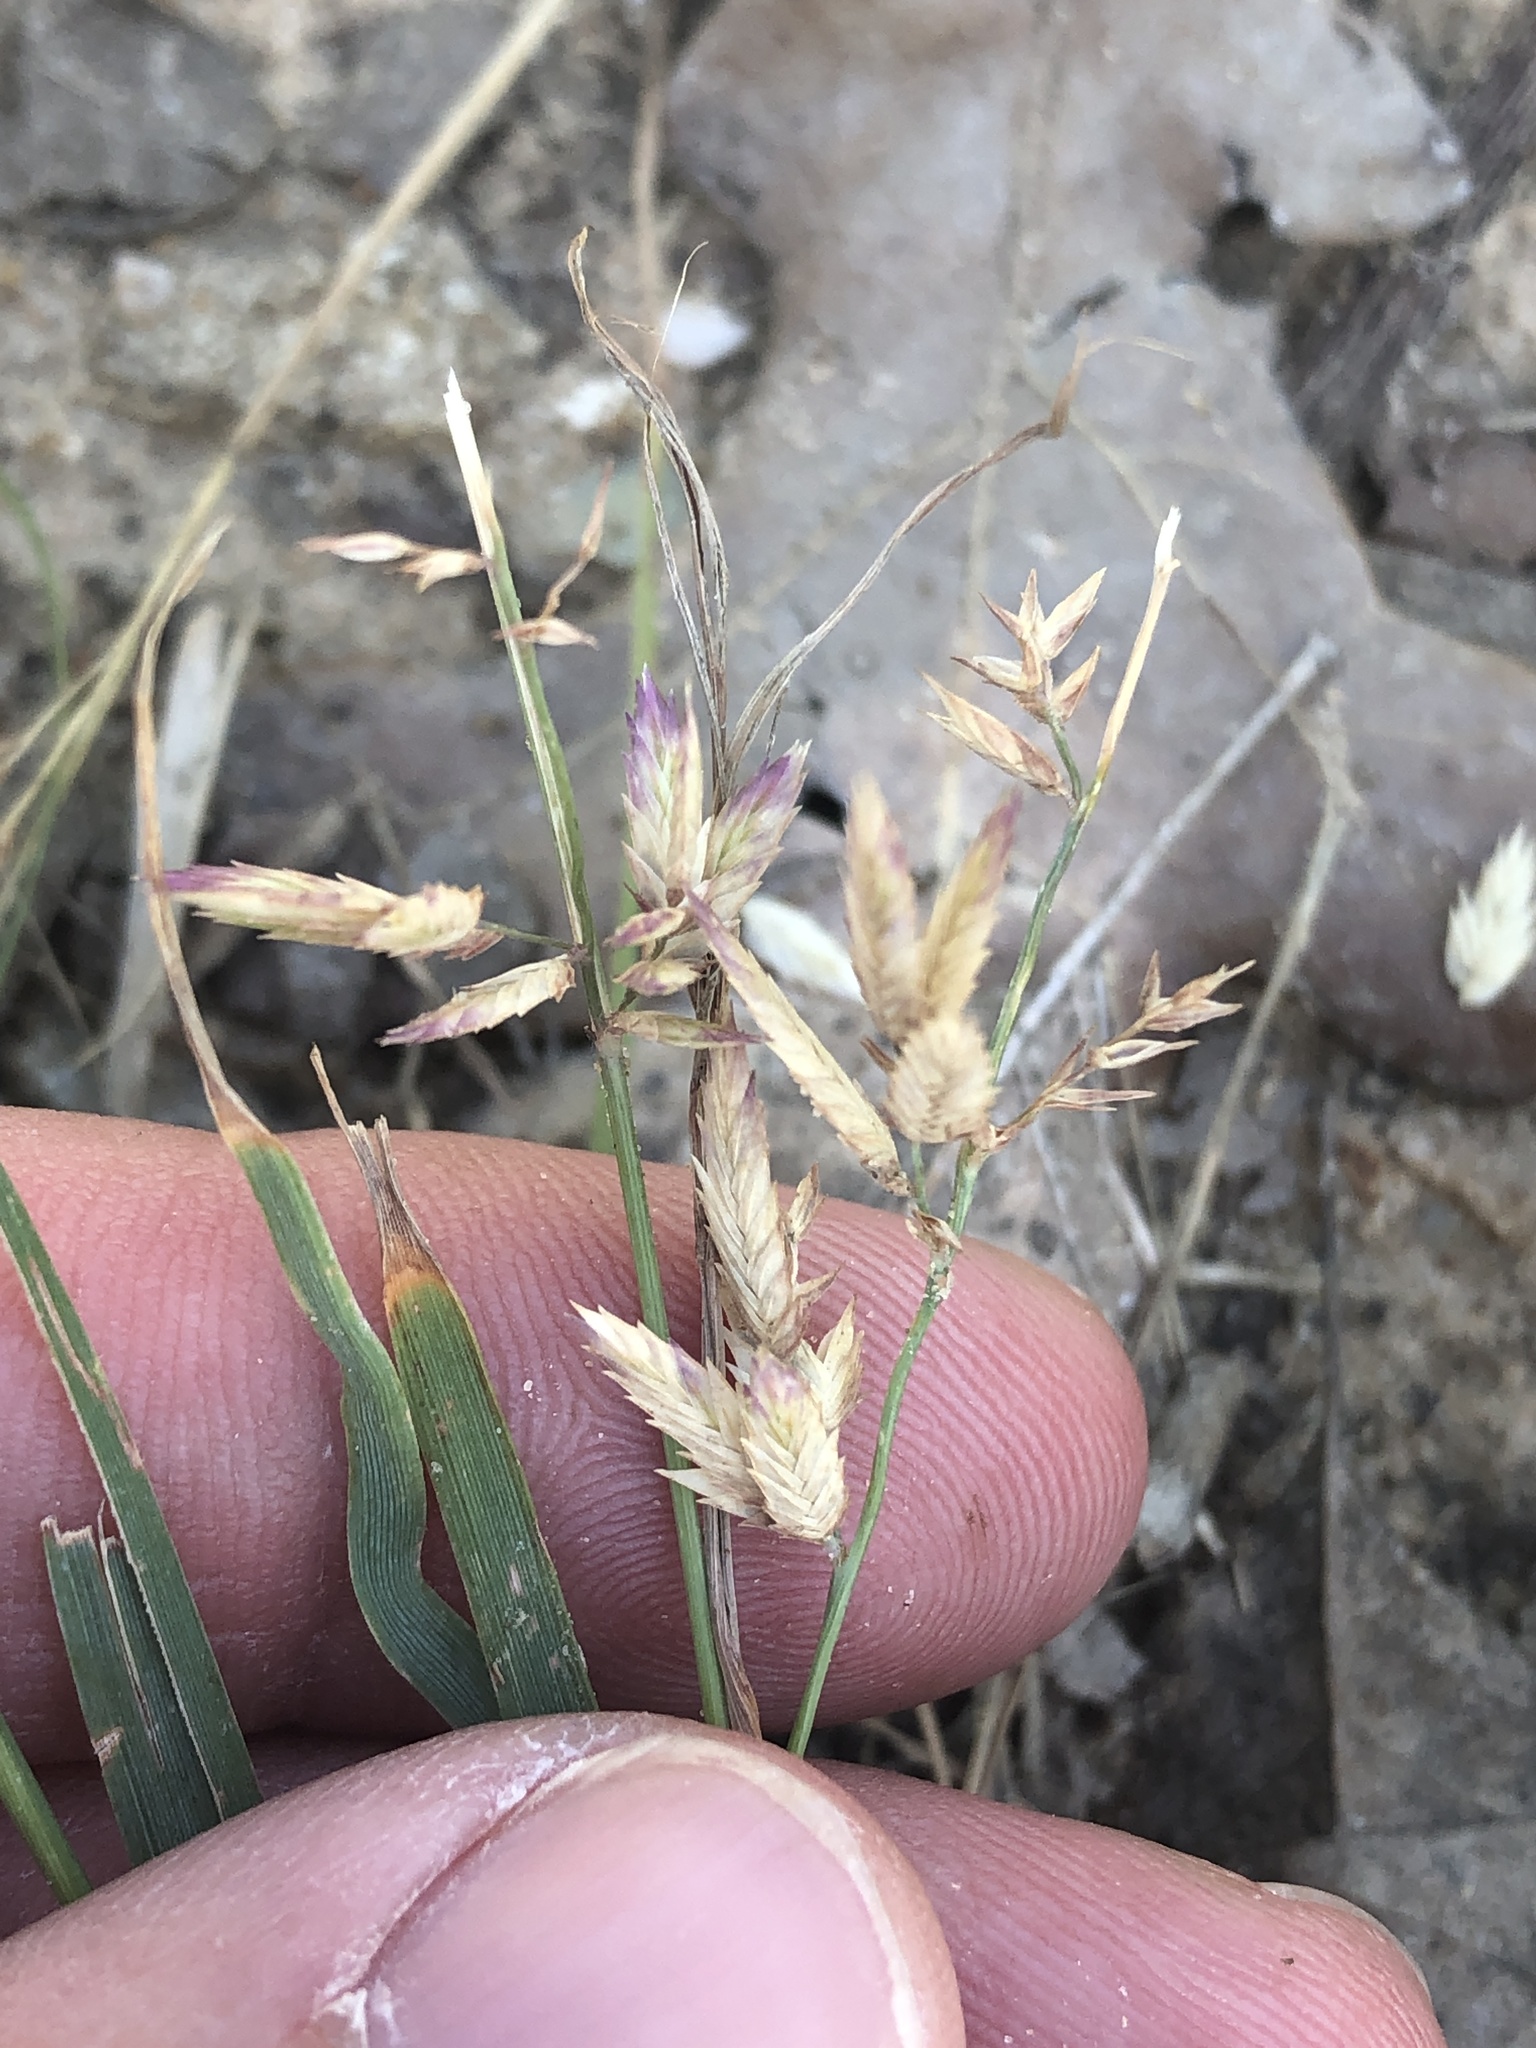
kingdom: Plantae
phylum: Tracheophyta
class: Liliopsida
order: Poales
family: Poaceae
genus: Eragrostis
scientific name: Eragrostis secundiflora
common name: Red love grass
